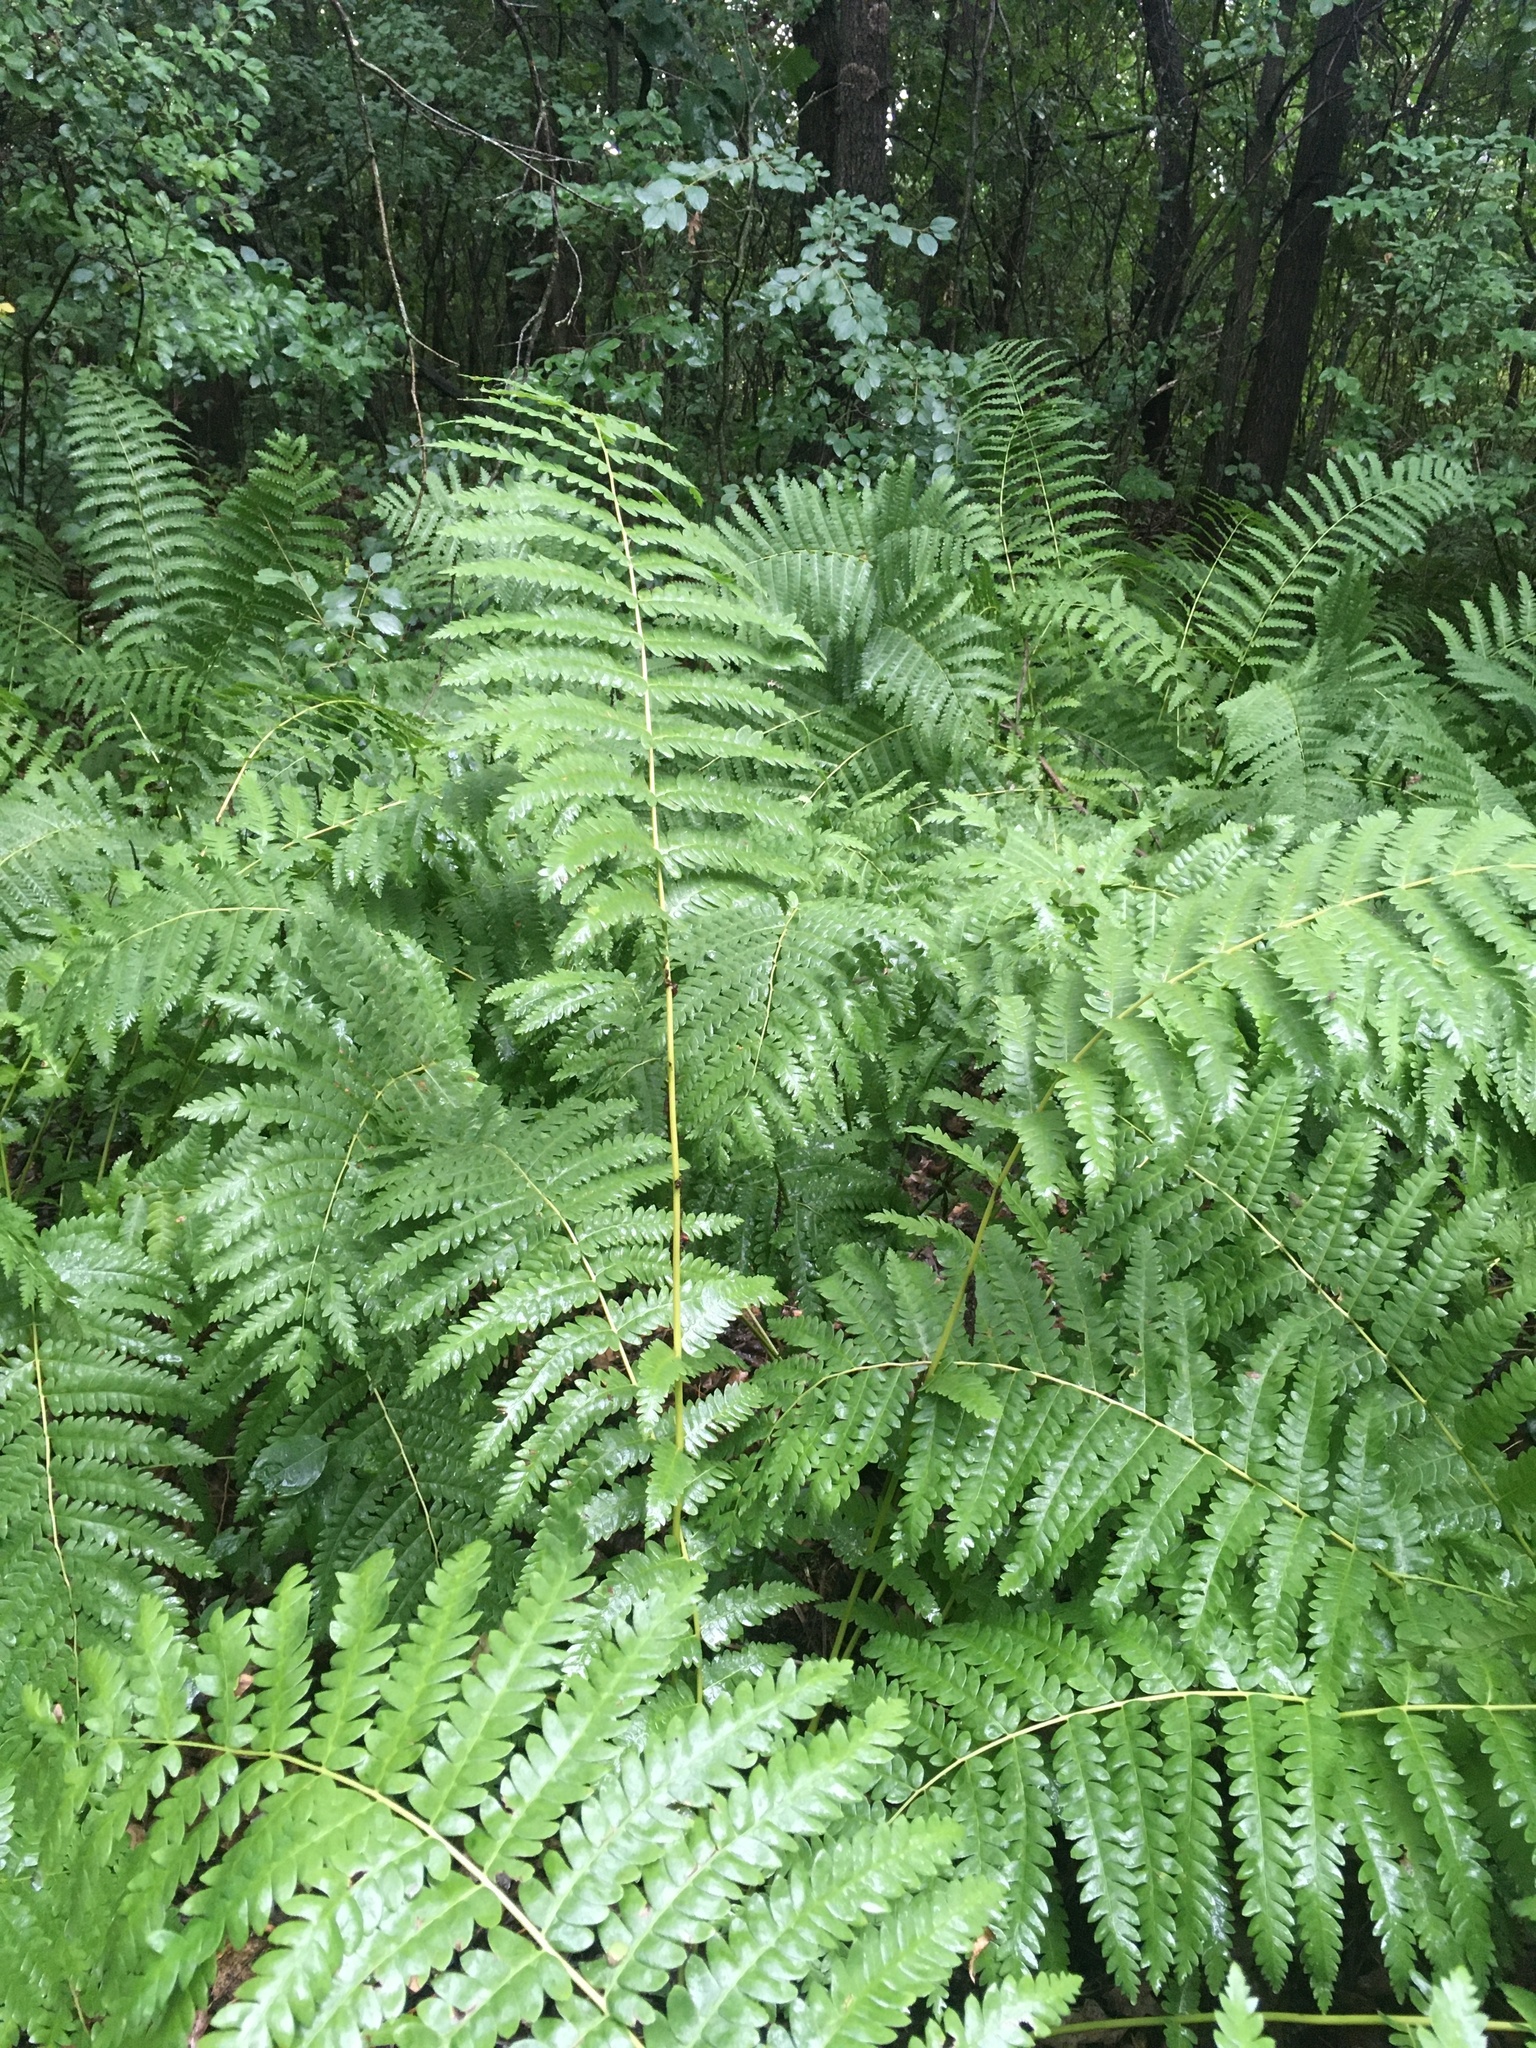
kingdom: Plantae
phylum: Tracheophyta
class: Polypodiopsida
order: Osmundales
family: Osmundaceae
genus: Claytosmunda
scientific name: Claytosmunda claytoniana
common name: Clayton's fern
